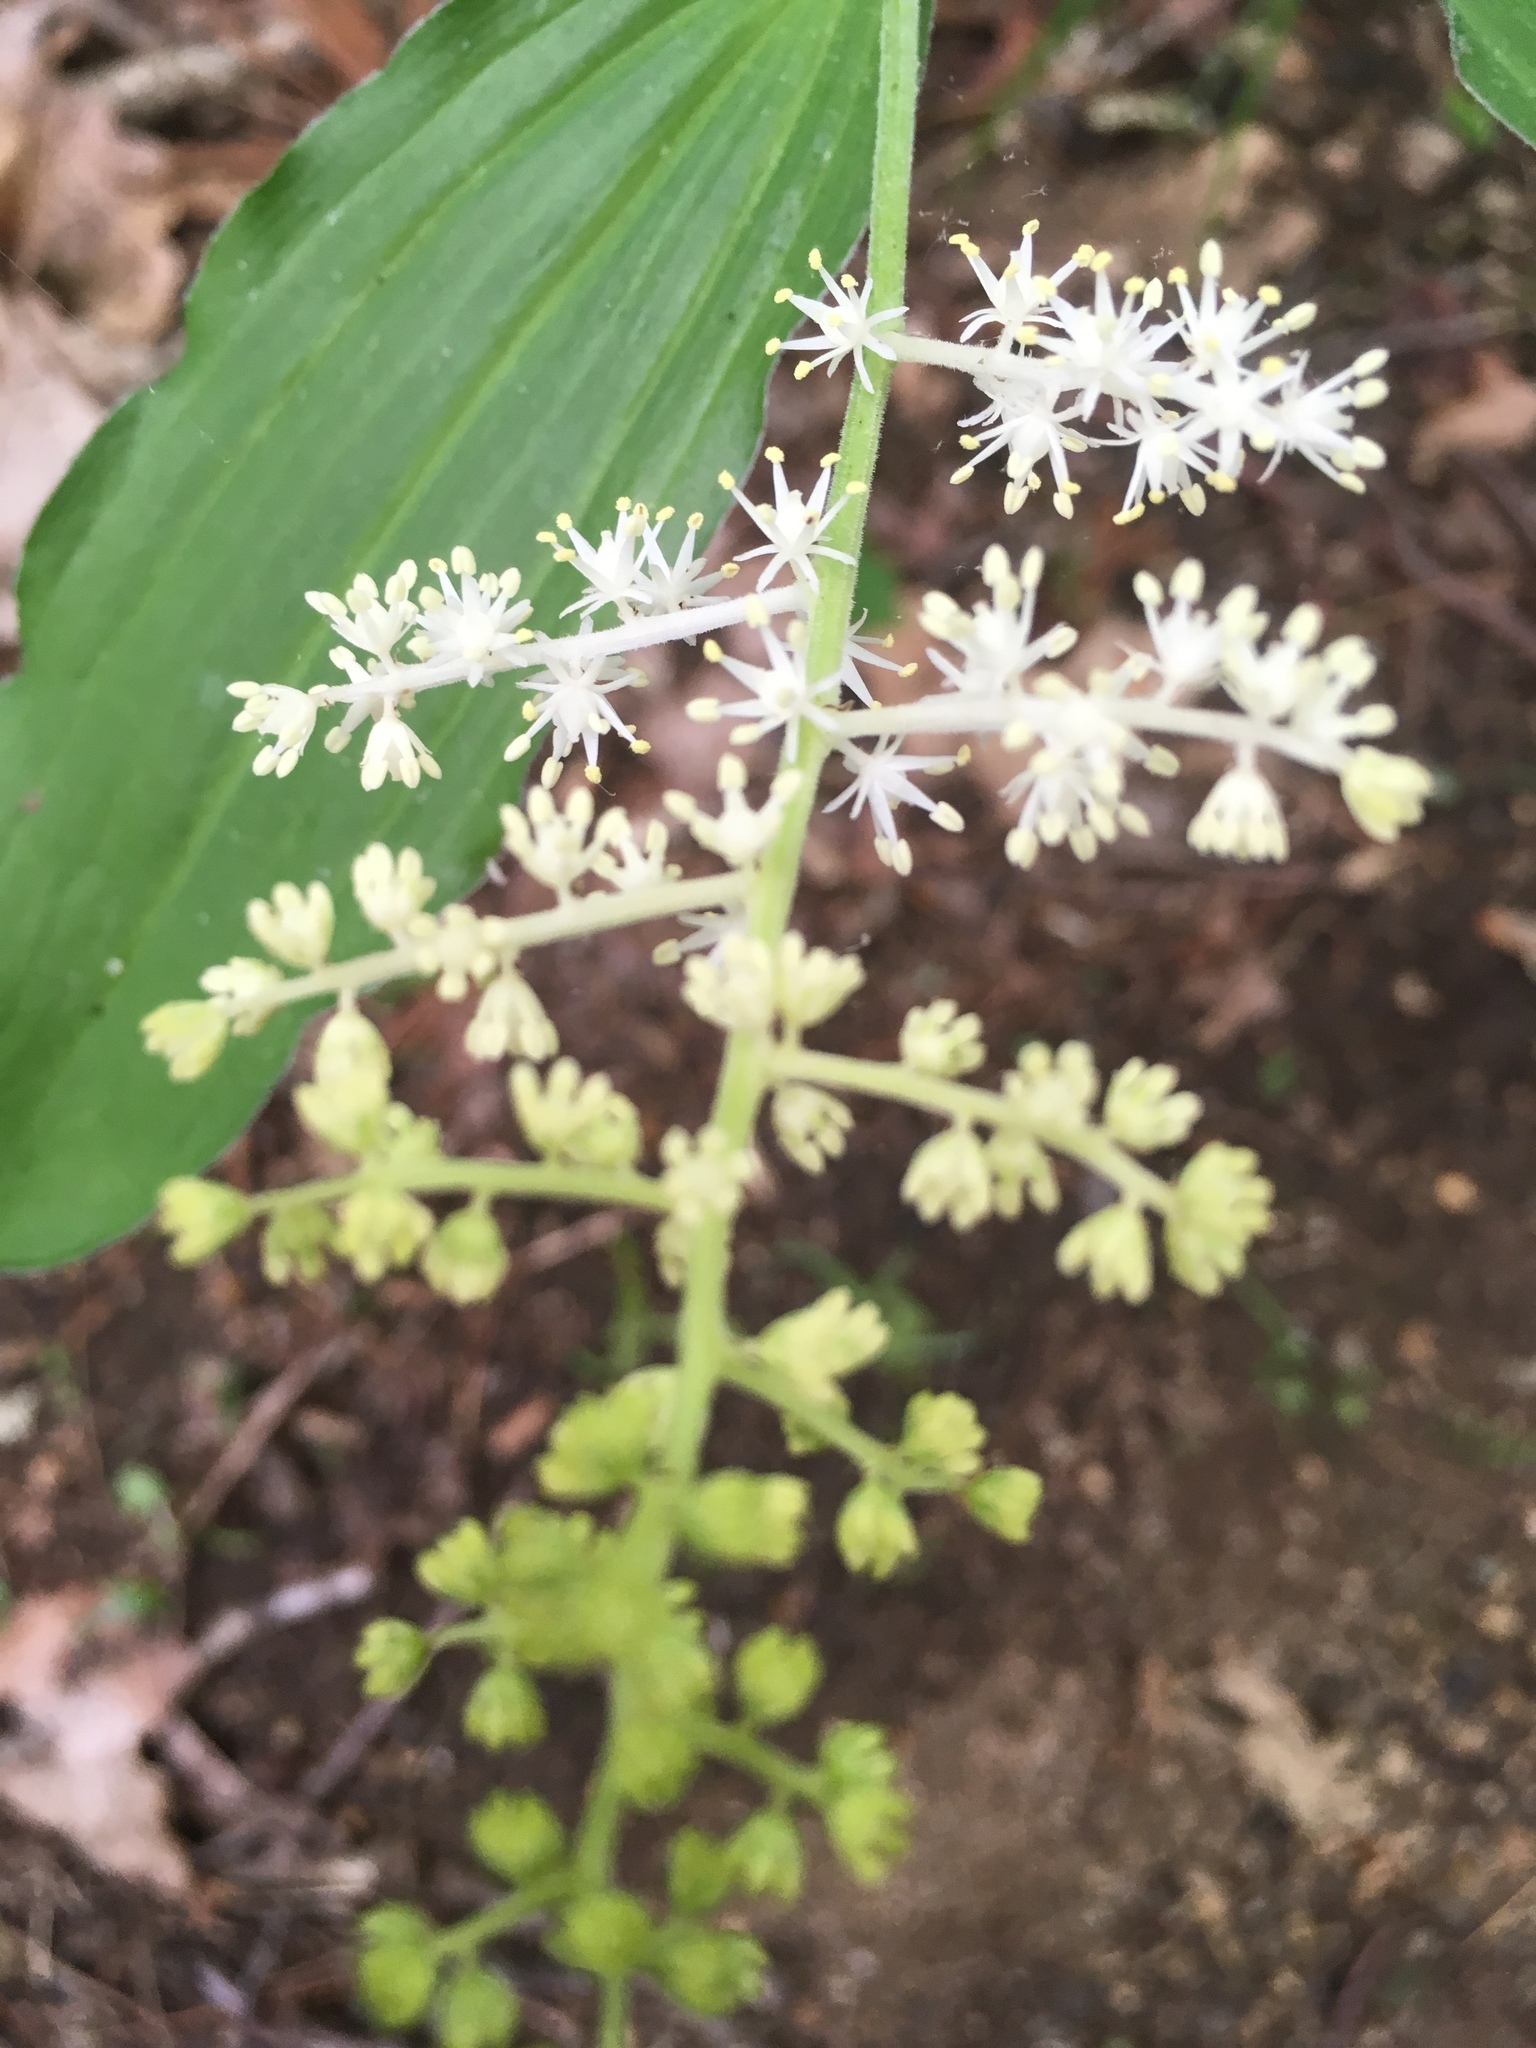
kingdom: Plantae
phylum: Tracheophyta
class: Liliopsida
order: Asparagales
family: Asparagaceae
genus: Maianthemum
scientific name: Maianthemum racemosum
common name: False spikenard
